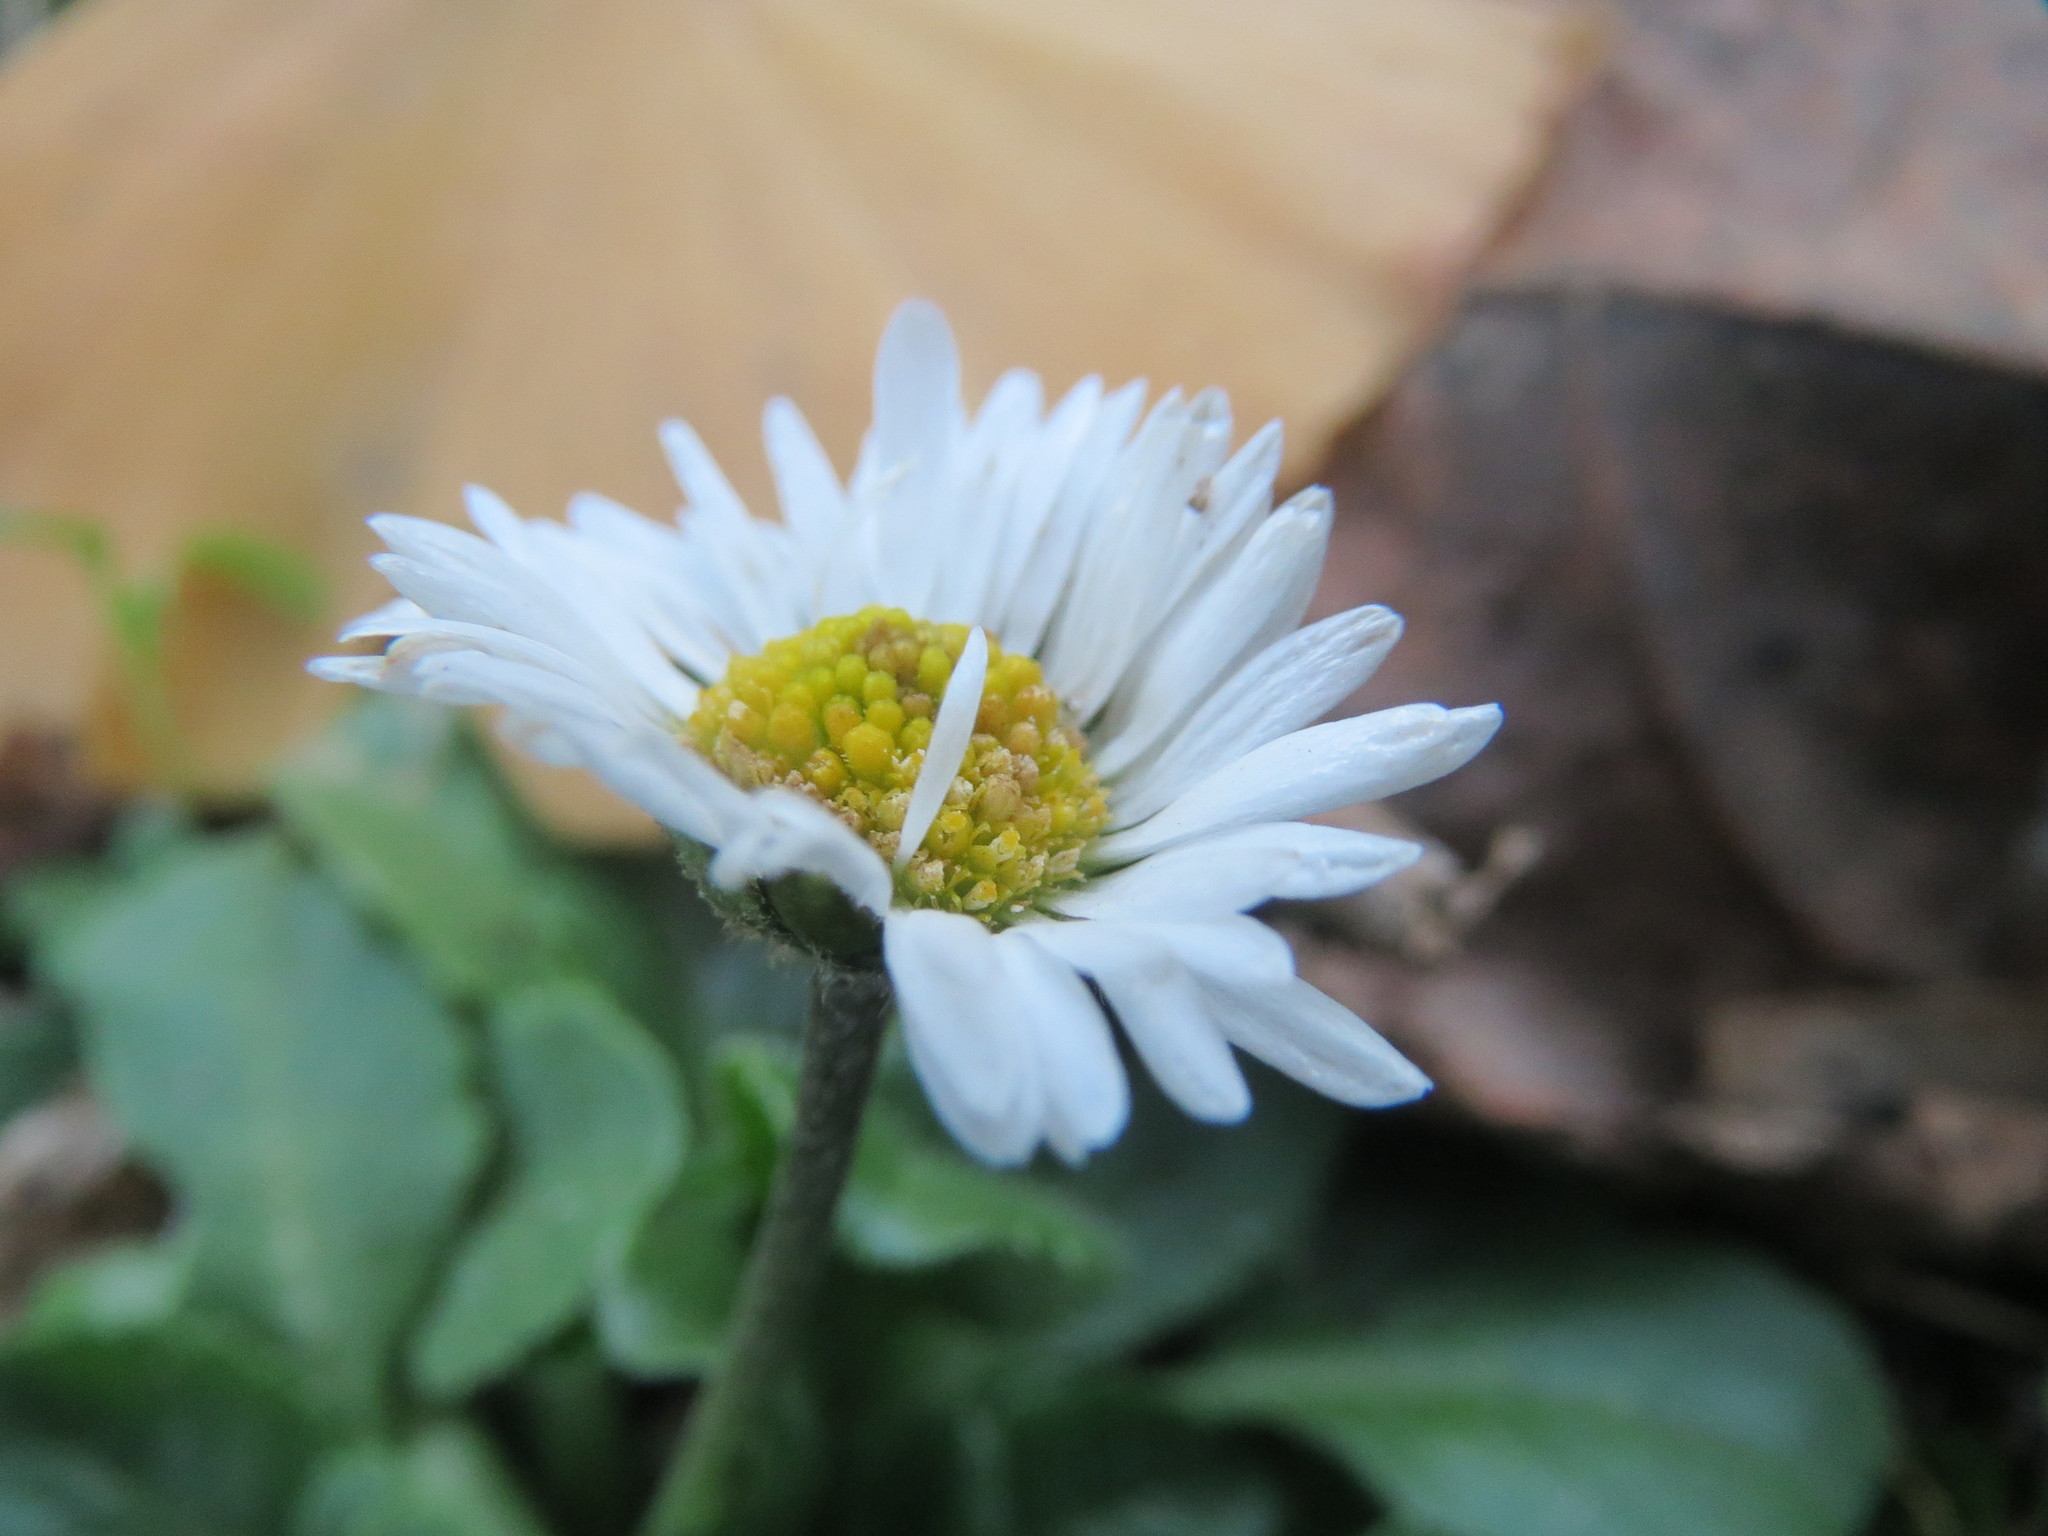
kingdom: Plantae
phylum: Tracheophyta
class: Magnoliopsida
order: Asterales
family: Asteraceae
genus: Bellis
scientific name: Bellis perennis
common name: Lawndaisy
